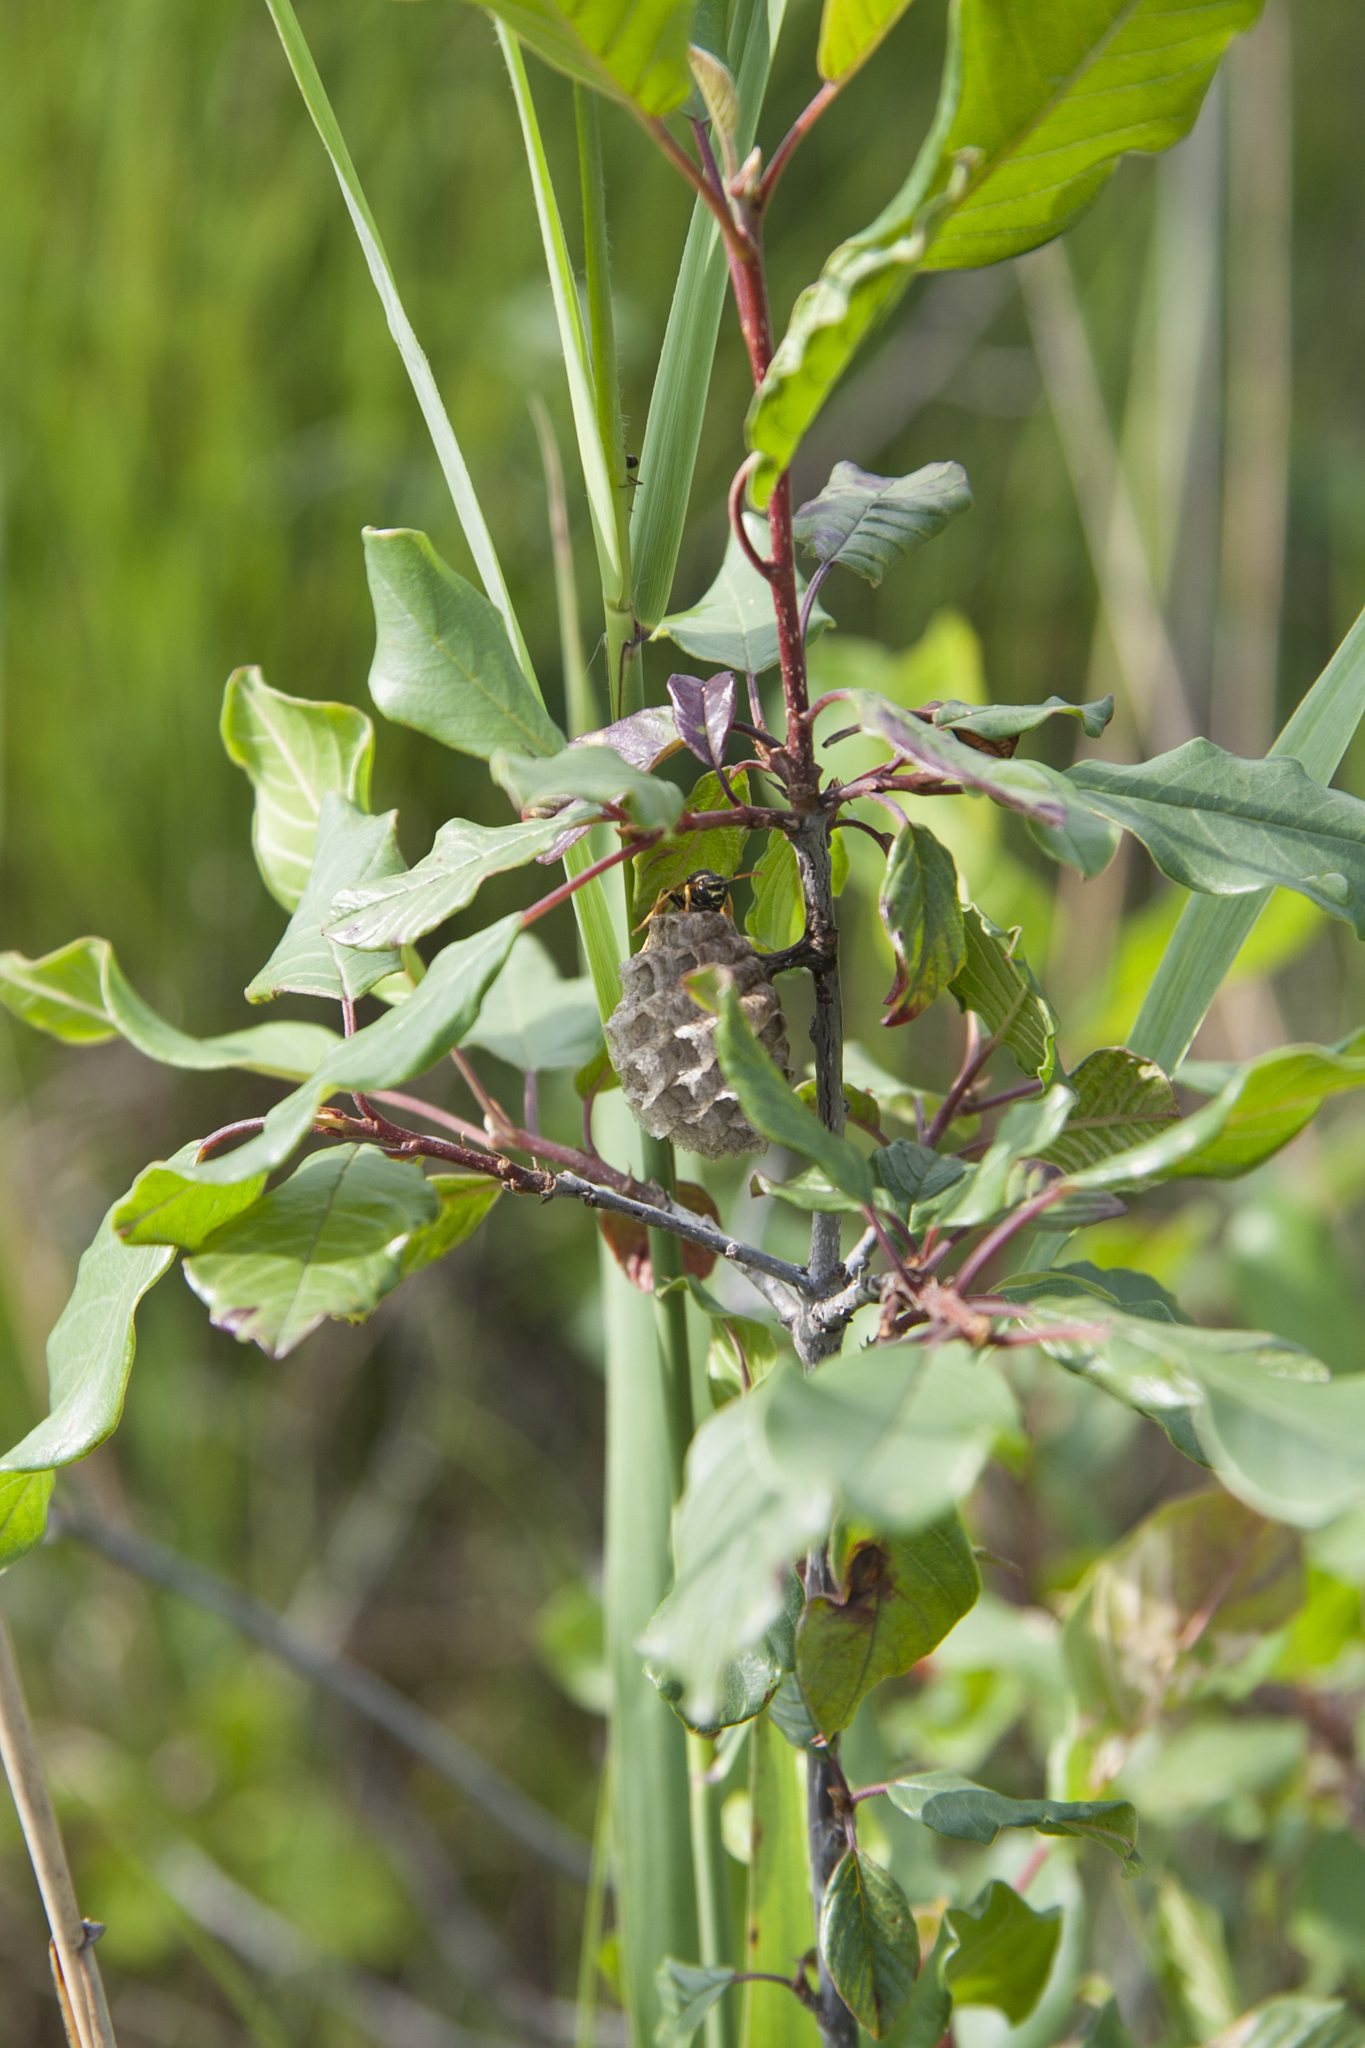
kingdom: Animalia
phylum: Arthropoda
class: Insecta
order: Hymenoptera
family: Eumenidae
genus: Polistes
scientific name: Polistes nimpha
